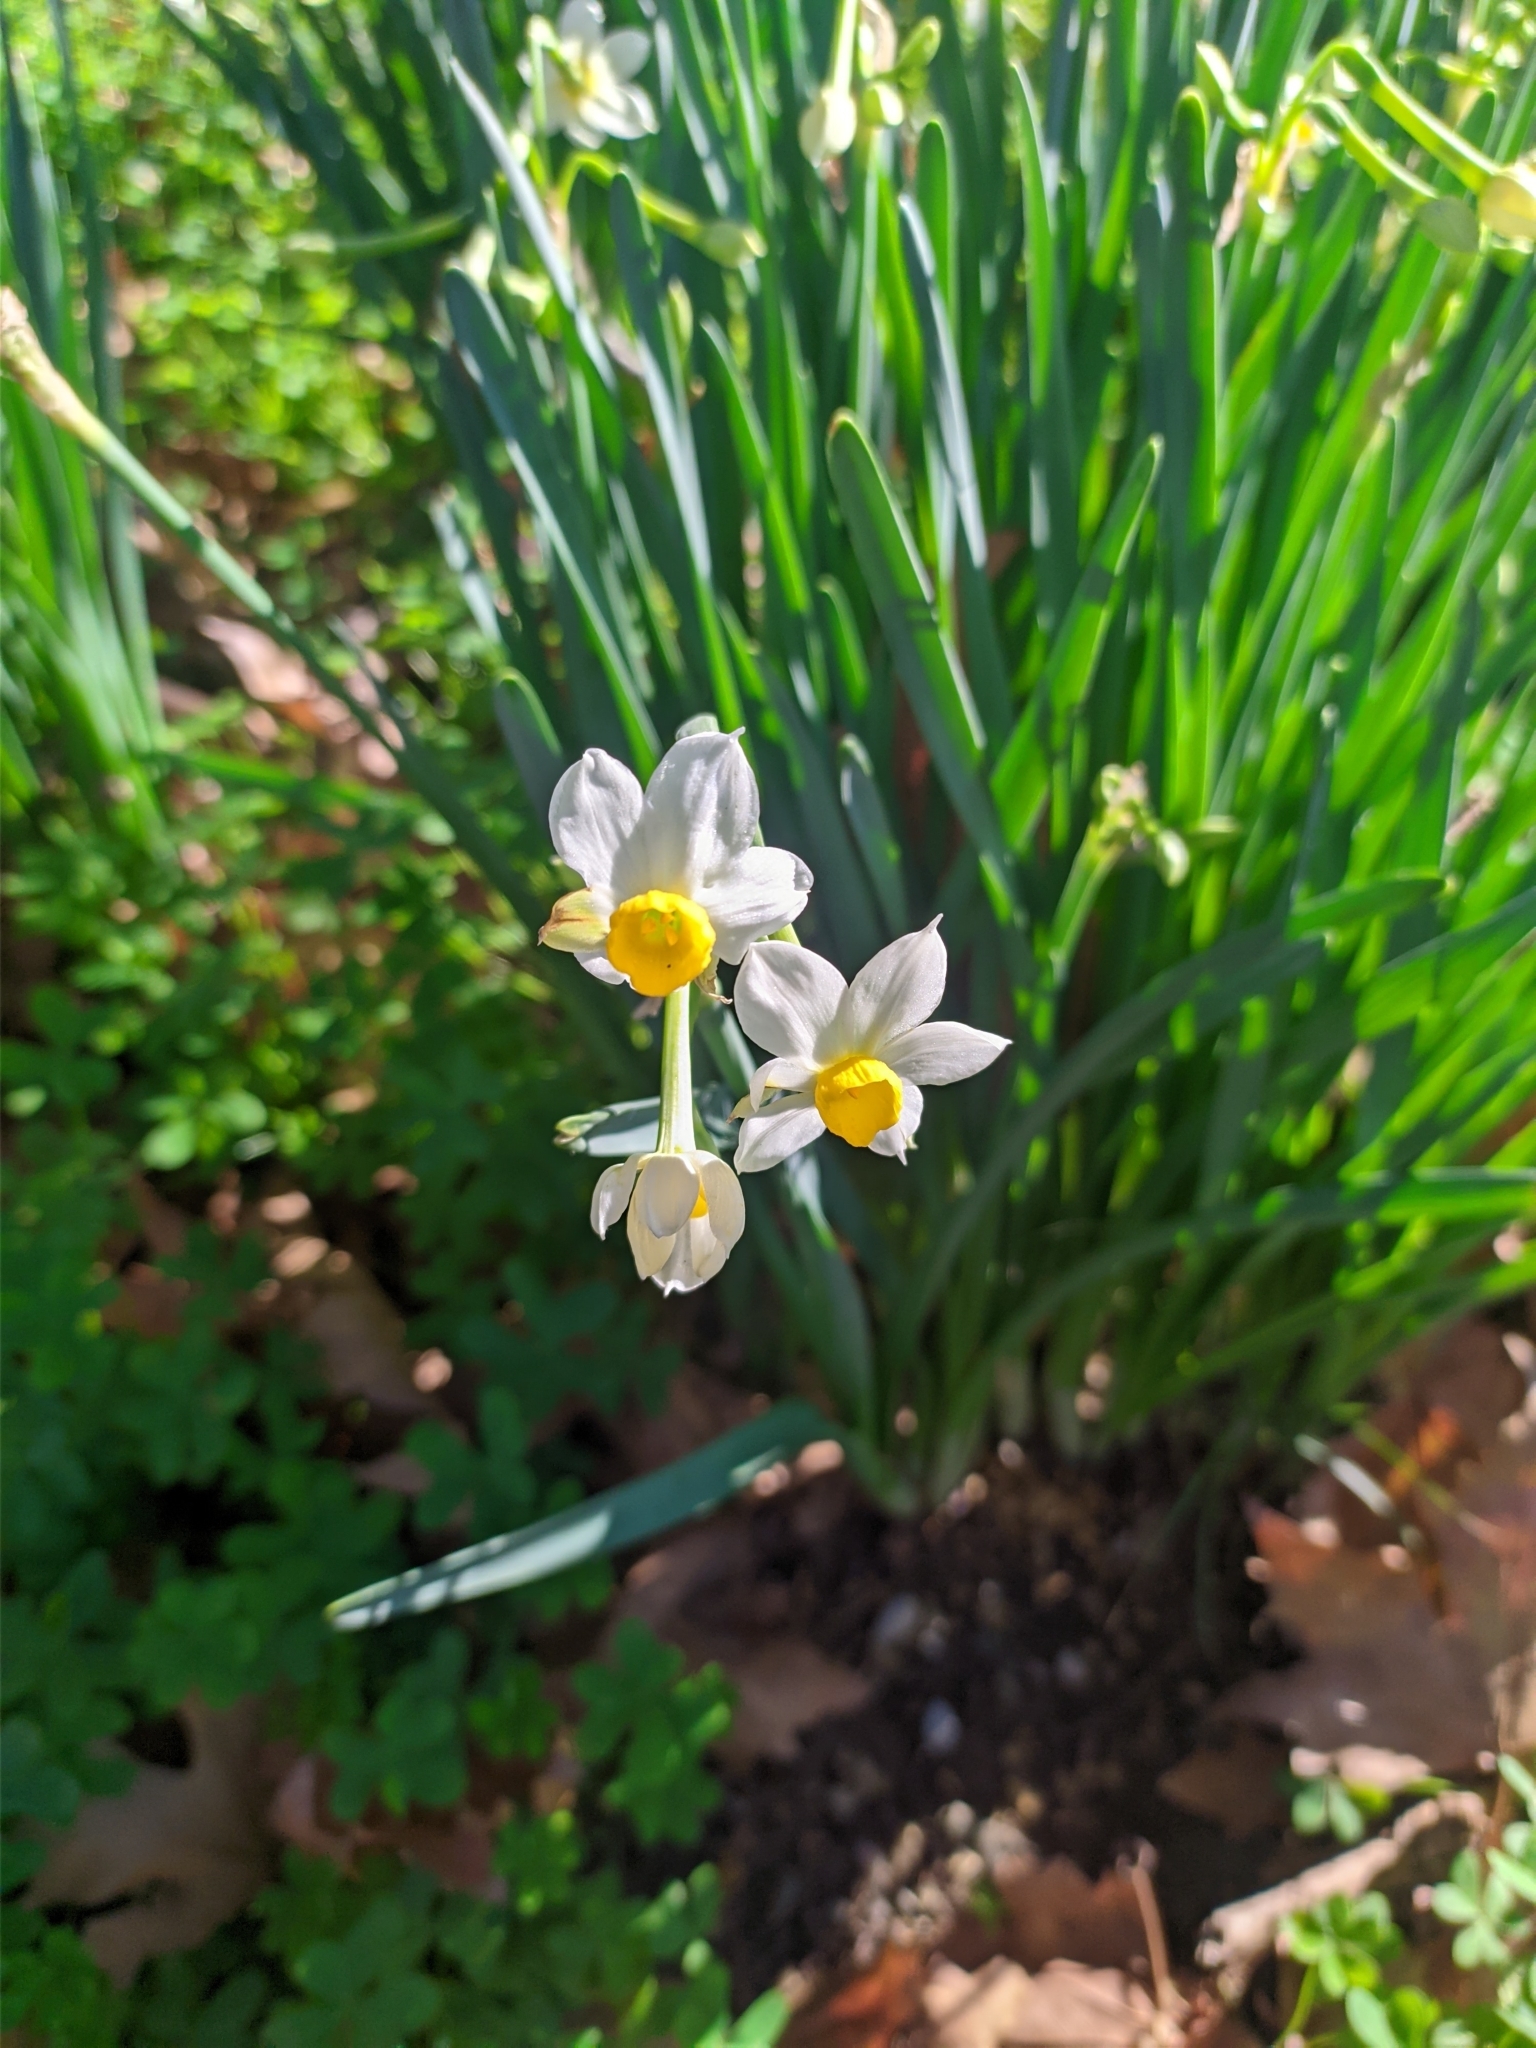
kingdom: Plantae
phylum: Tracheophyta
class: Liliopsida
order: Asparagales
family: Amaryllidaceae
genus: Narcissus
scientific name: Narcissus tazetta
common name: Bunch-flowered daffodil
